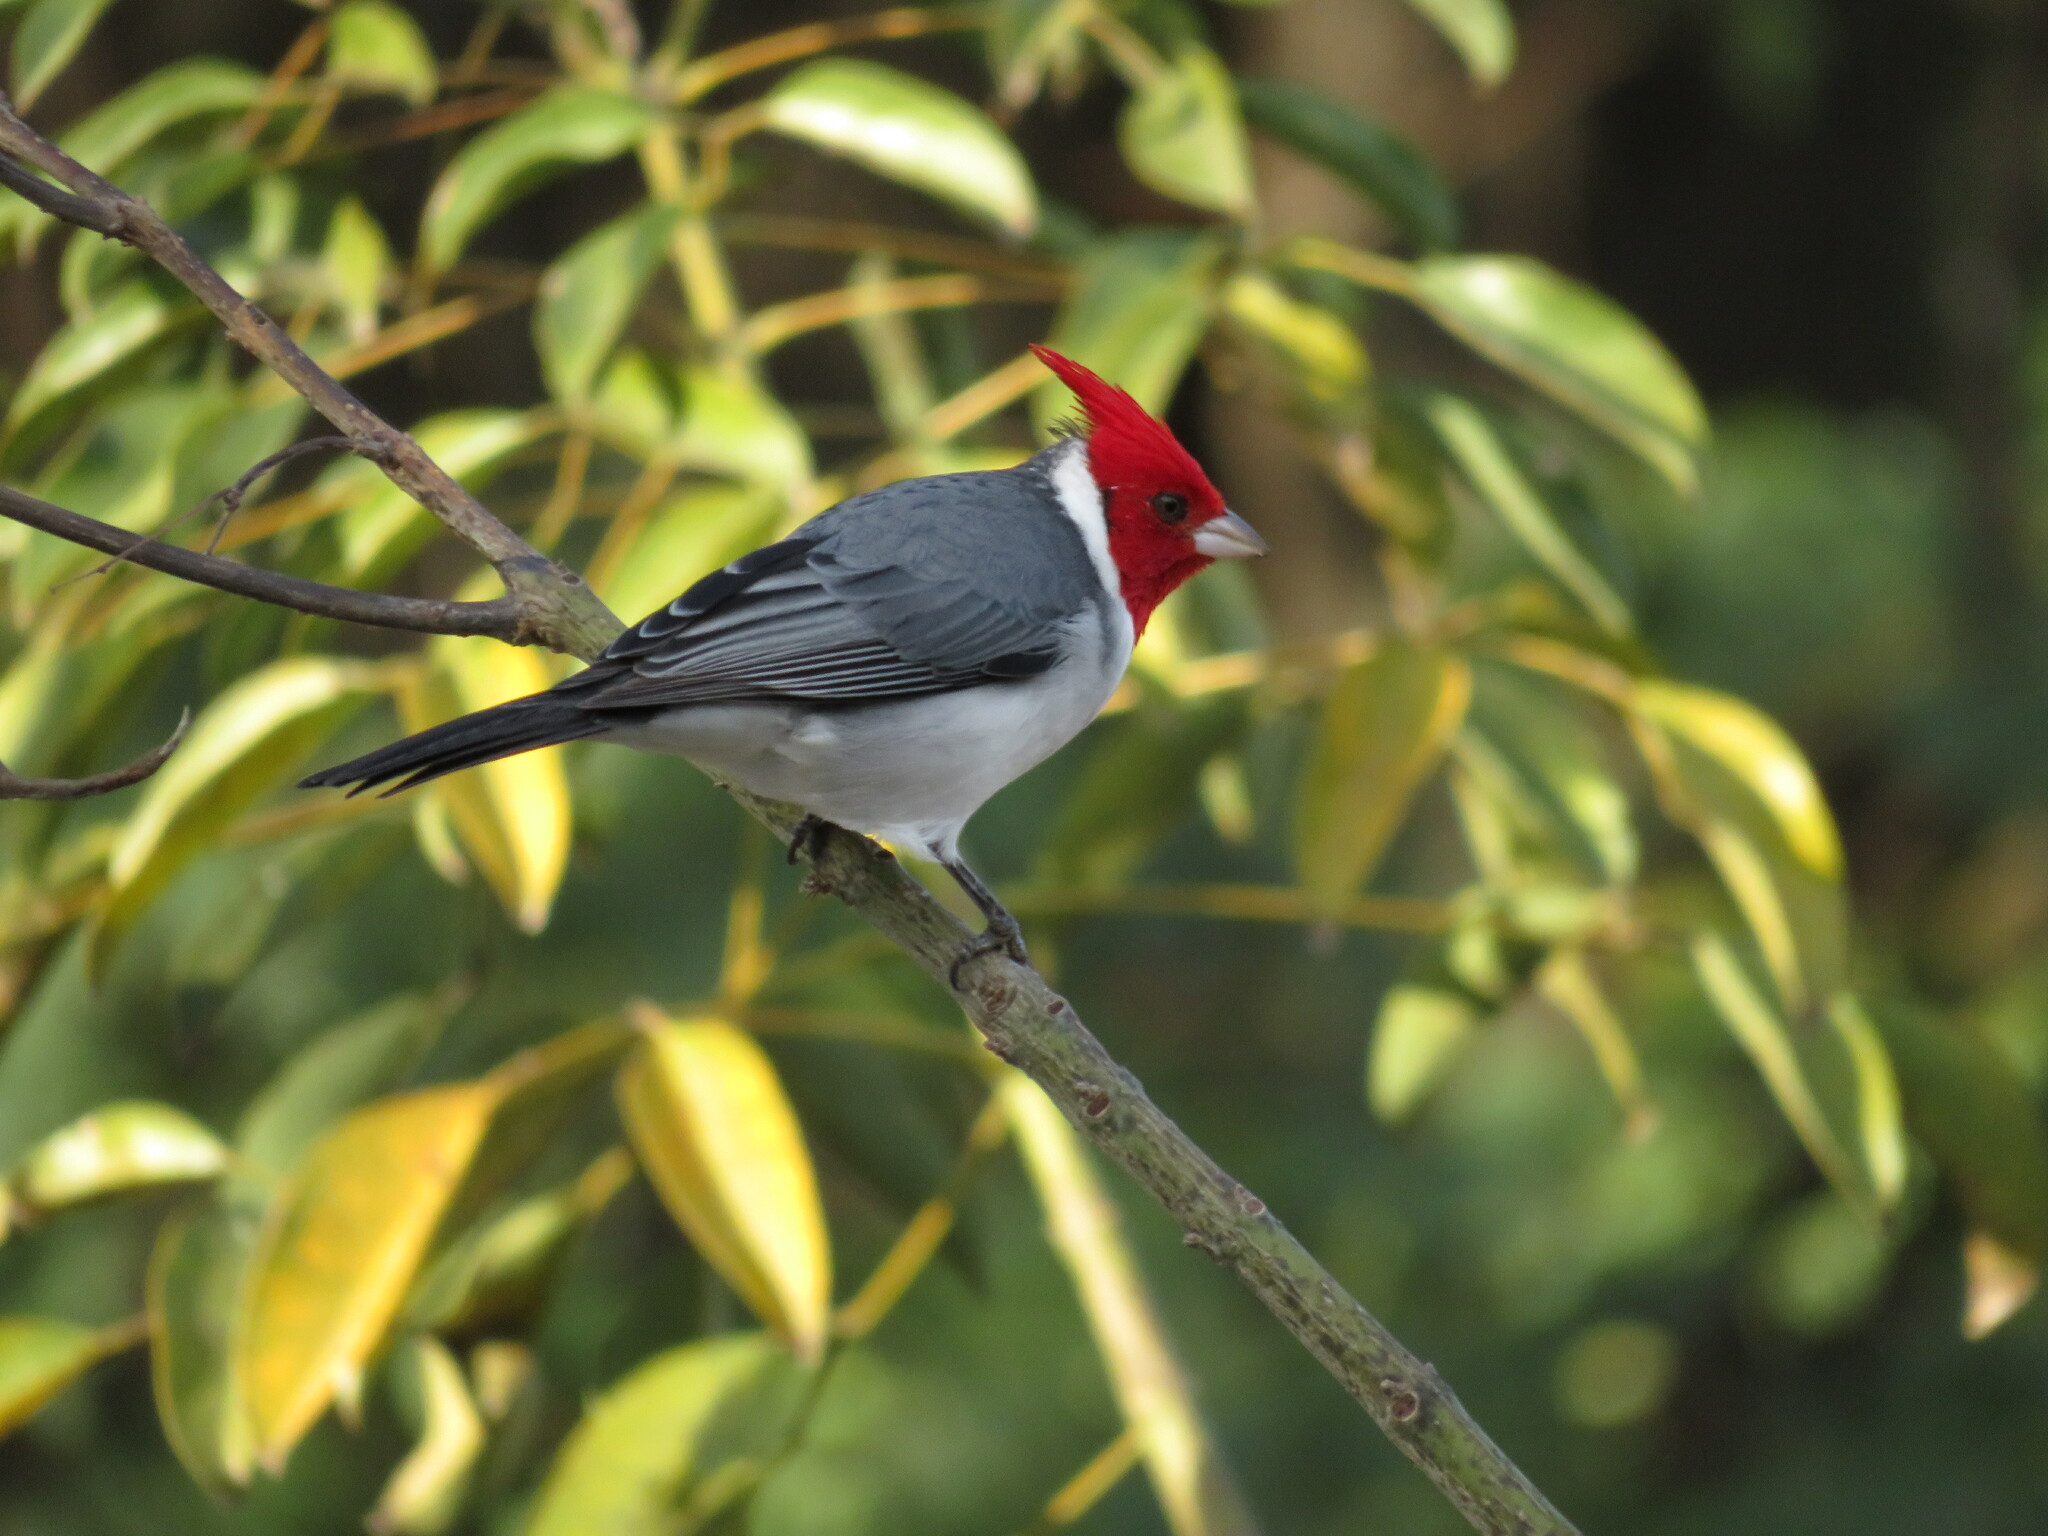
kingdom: Animalia
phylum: Chordata
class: Aves
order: Passeriformes
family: Thraupidae
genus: Paroaria
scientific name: Paroaria coronata
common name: Red-crested cardinal
